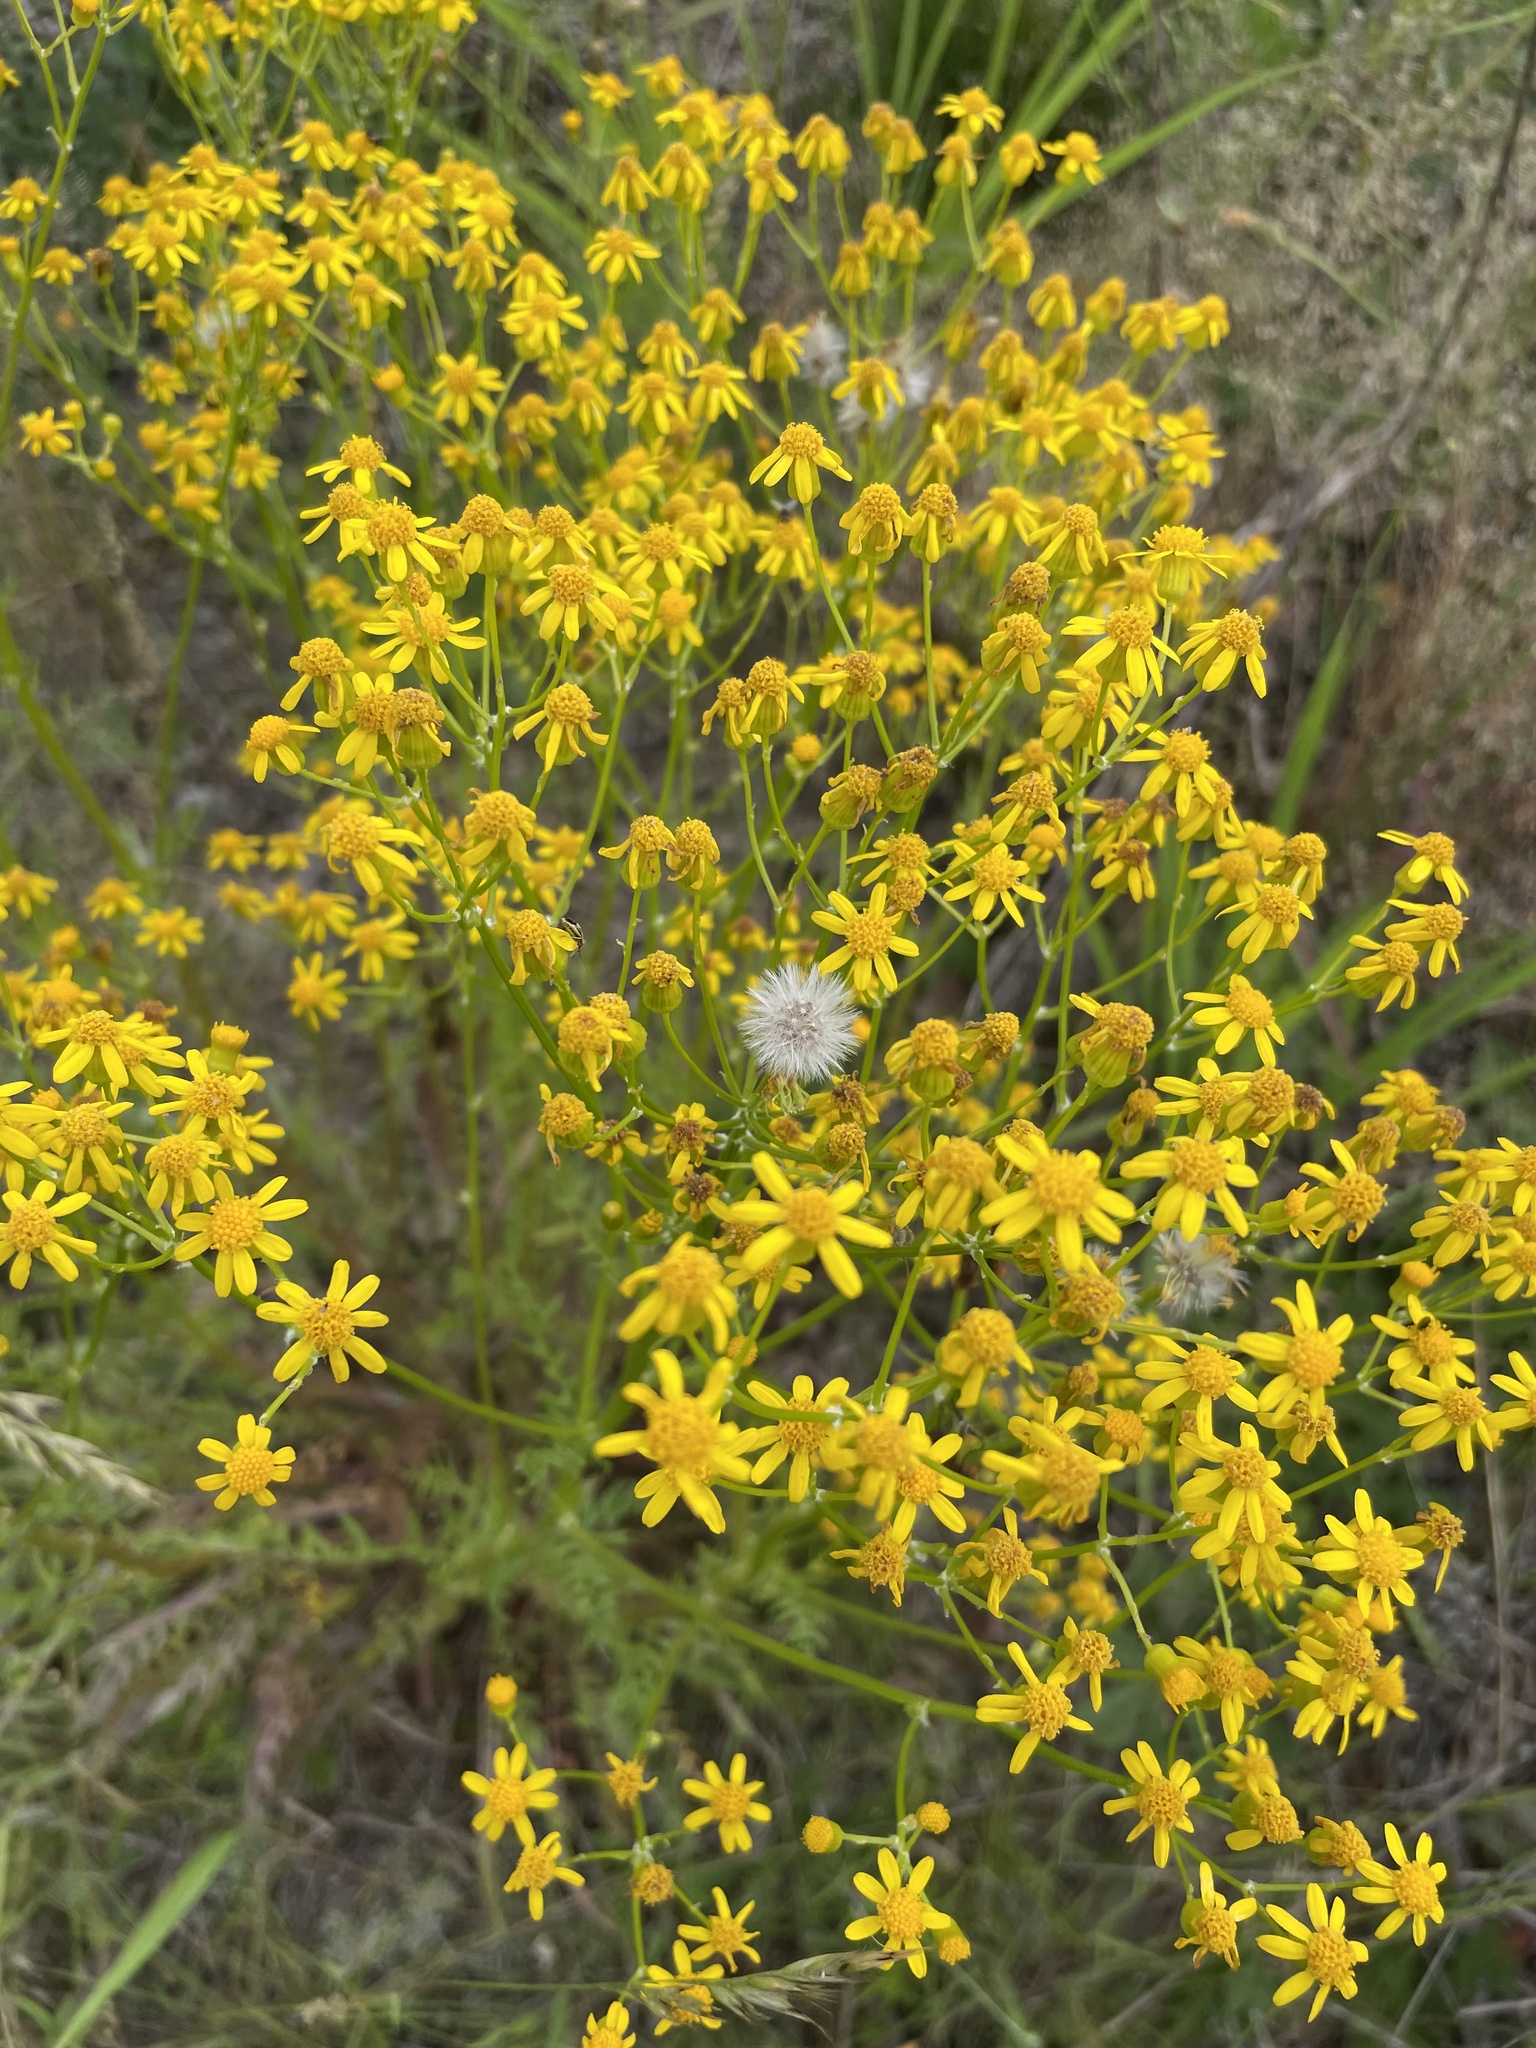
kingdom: Plantae
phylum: Tracheophyta
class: Magnoliopsida
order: Asterales
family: Asteraceae
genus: Packera
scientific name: Packera anonyma
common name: Small ragwort
